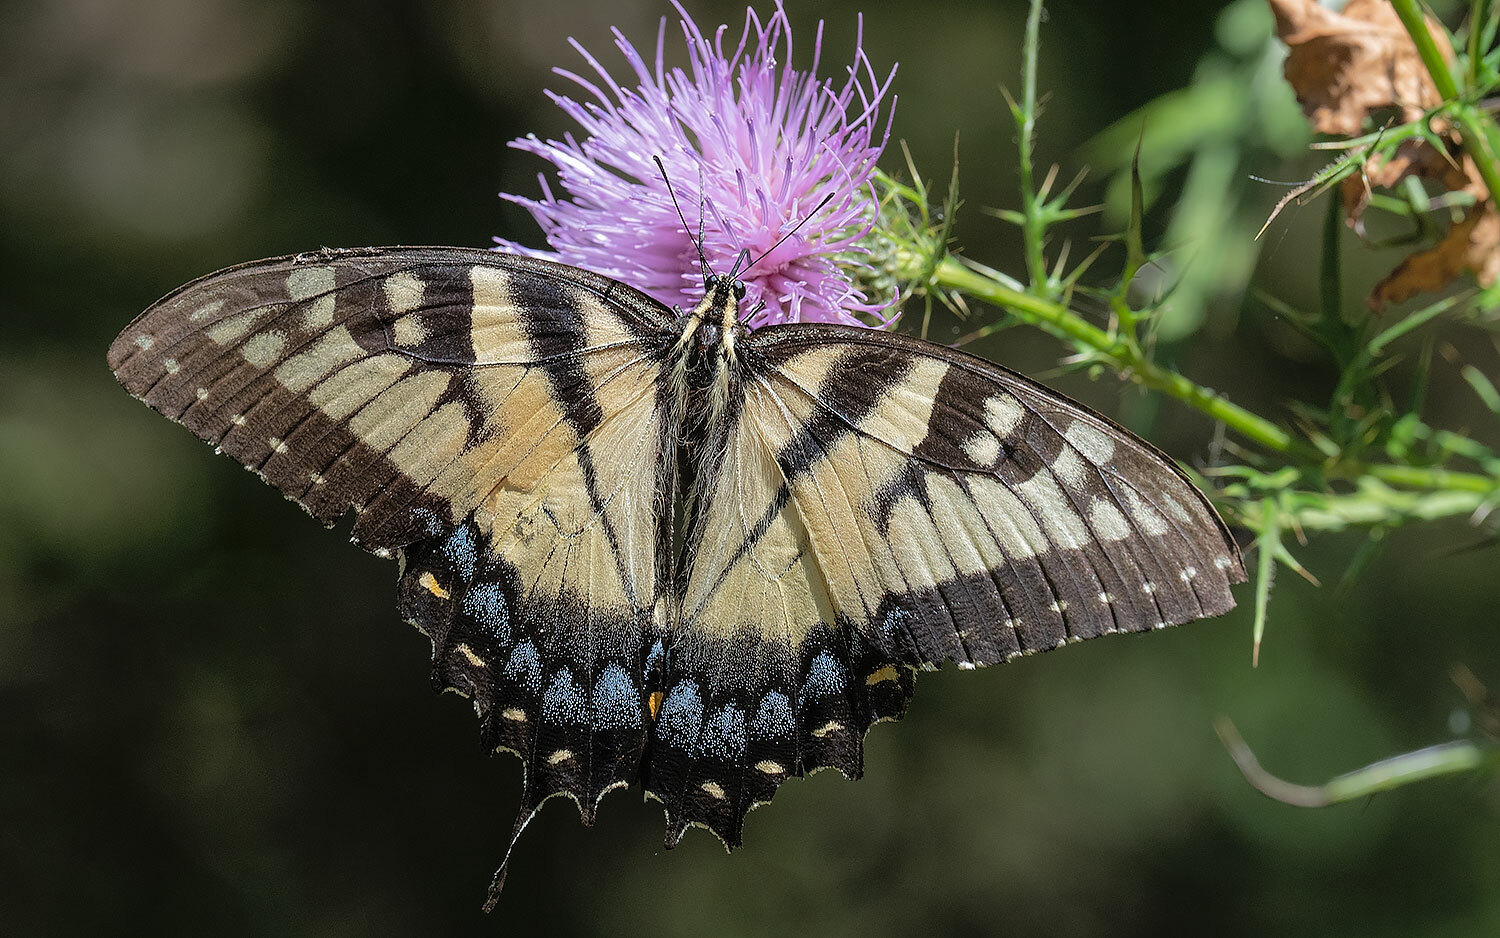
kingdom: Animalia
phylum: Arthropoda
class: Insecta
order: Lepidoptera
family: Papilionidae
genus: Papilio
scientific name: Papilio glaucus
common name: Tiger swallowtail
